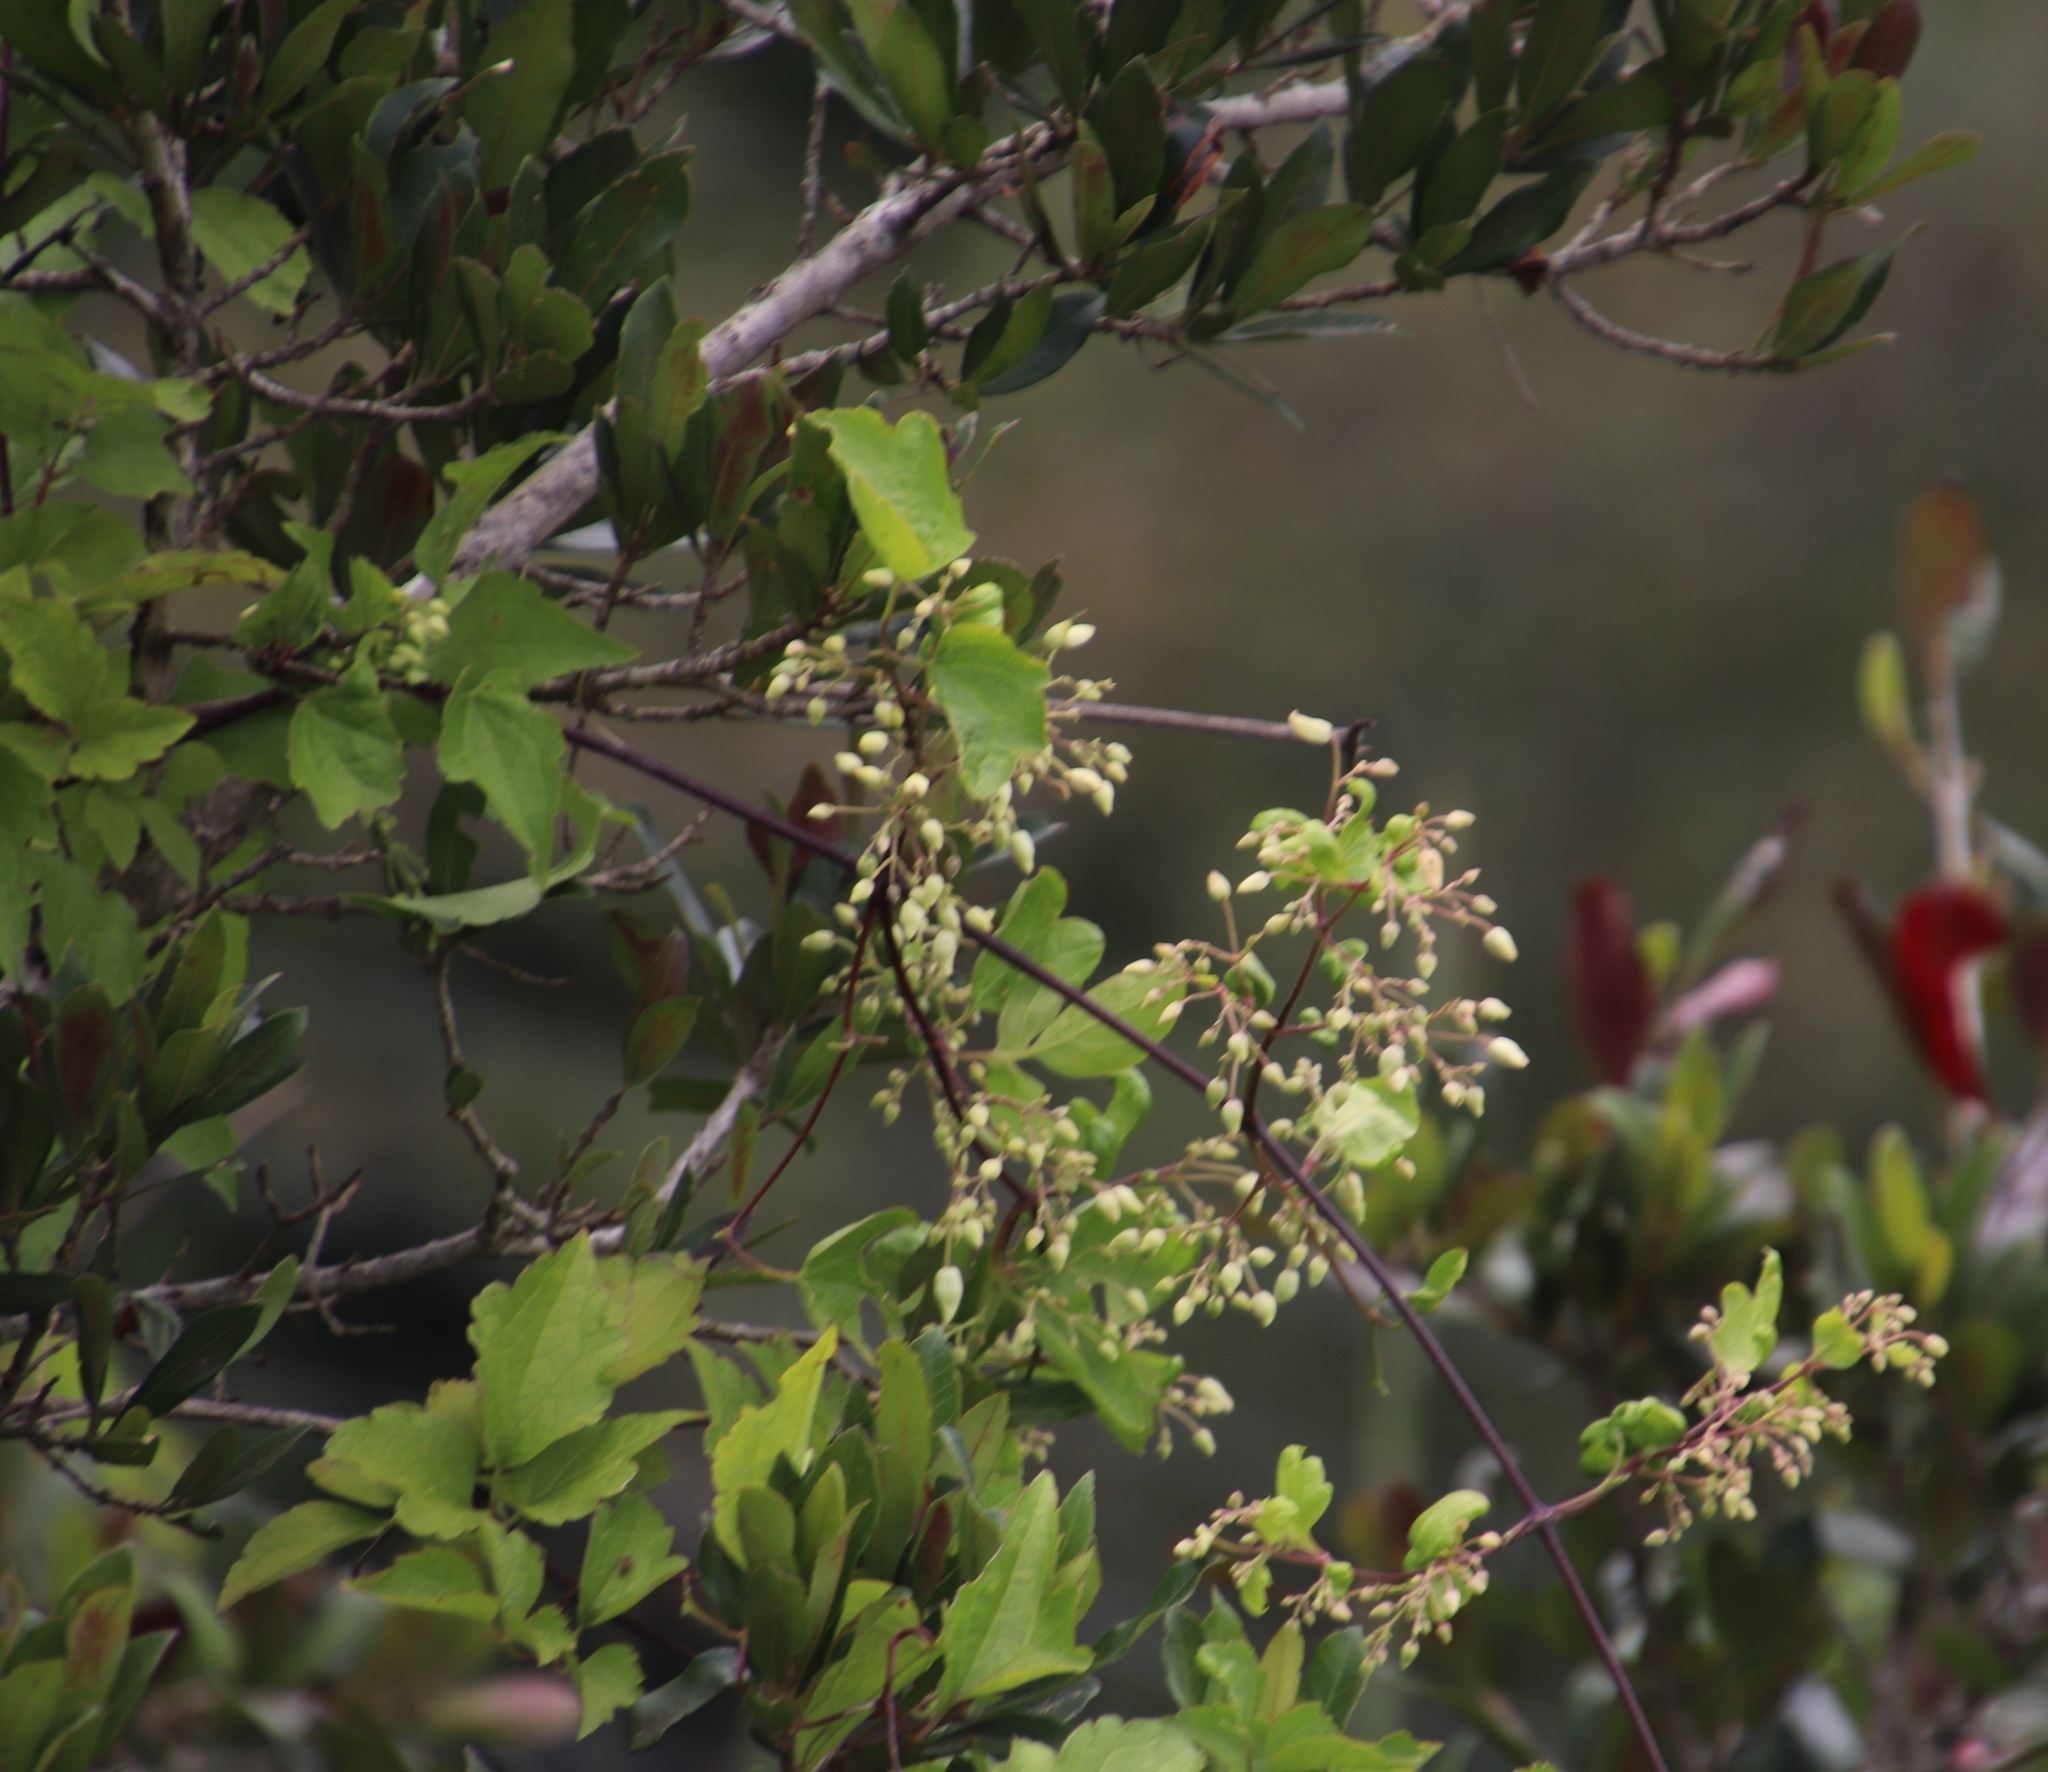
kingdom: Plantae
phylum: Tracheophyta
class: Magnoliopsida
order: Ranunculales
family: Ranunculaceae
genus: Clematis
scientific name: Clematis brachiata
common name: Traveler's-joy
